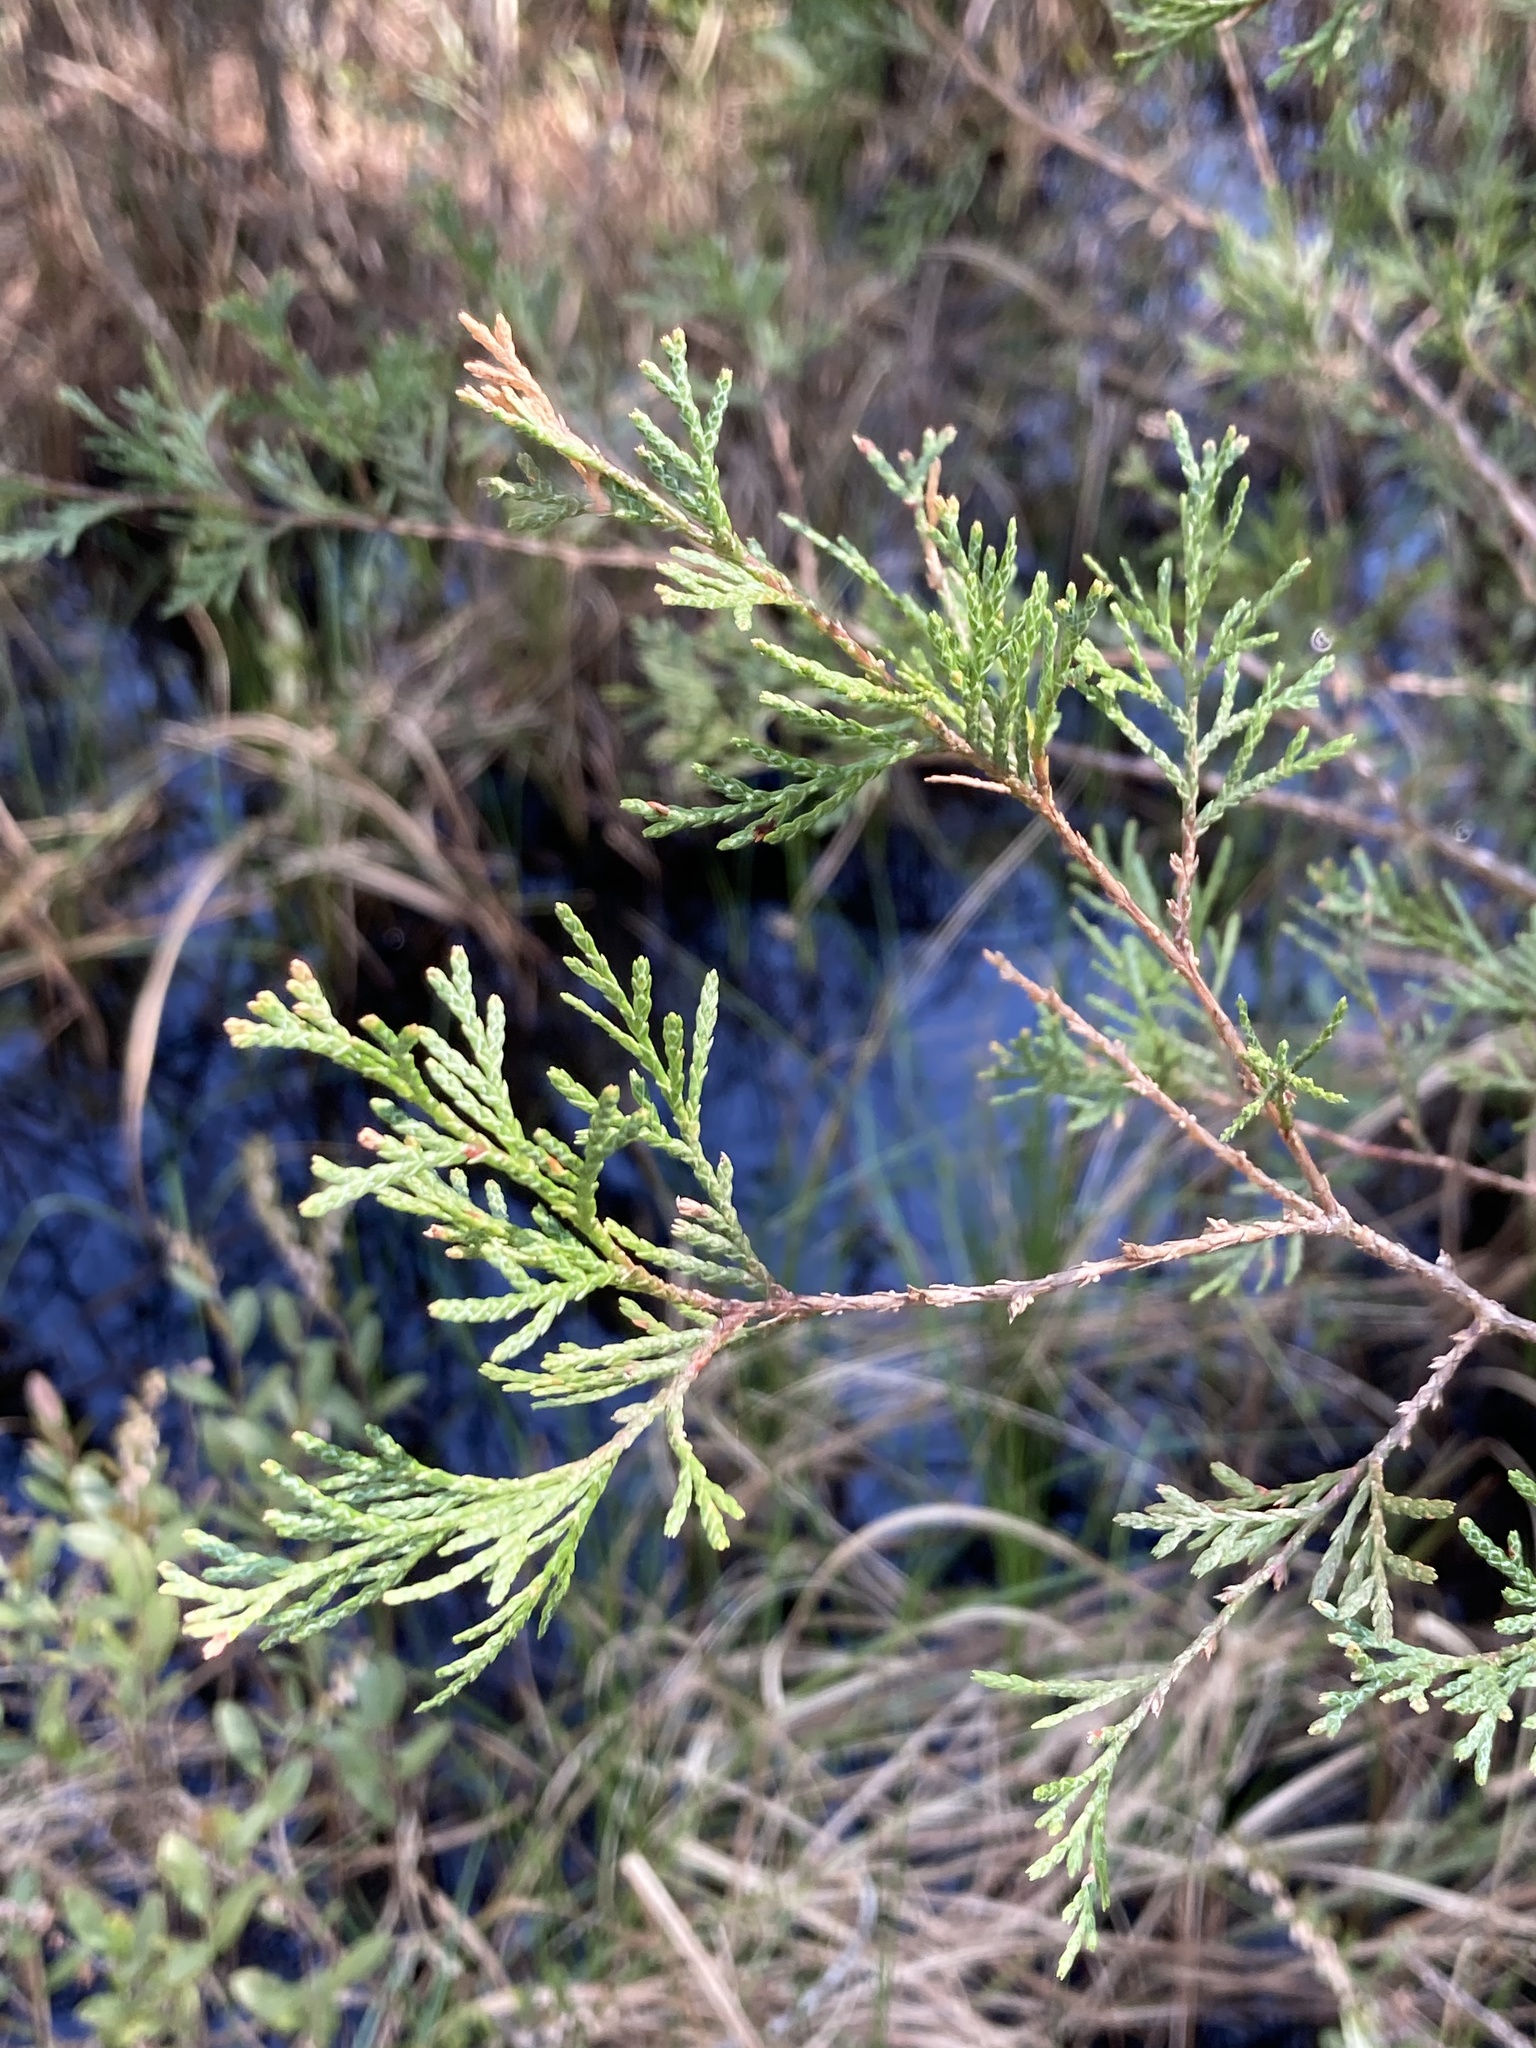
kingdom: Plantae
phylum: Tracheophyta
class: Pinopsida
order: Pinales
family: Cupressaceae
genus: Chamaecyparis
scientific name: Chamaecyparis thyoides
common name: Atlantic white cedar
